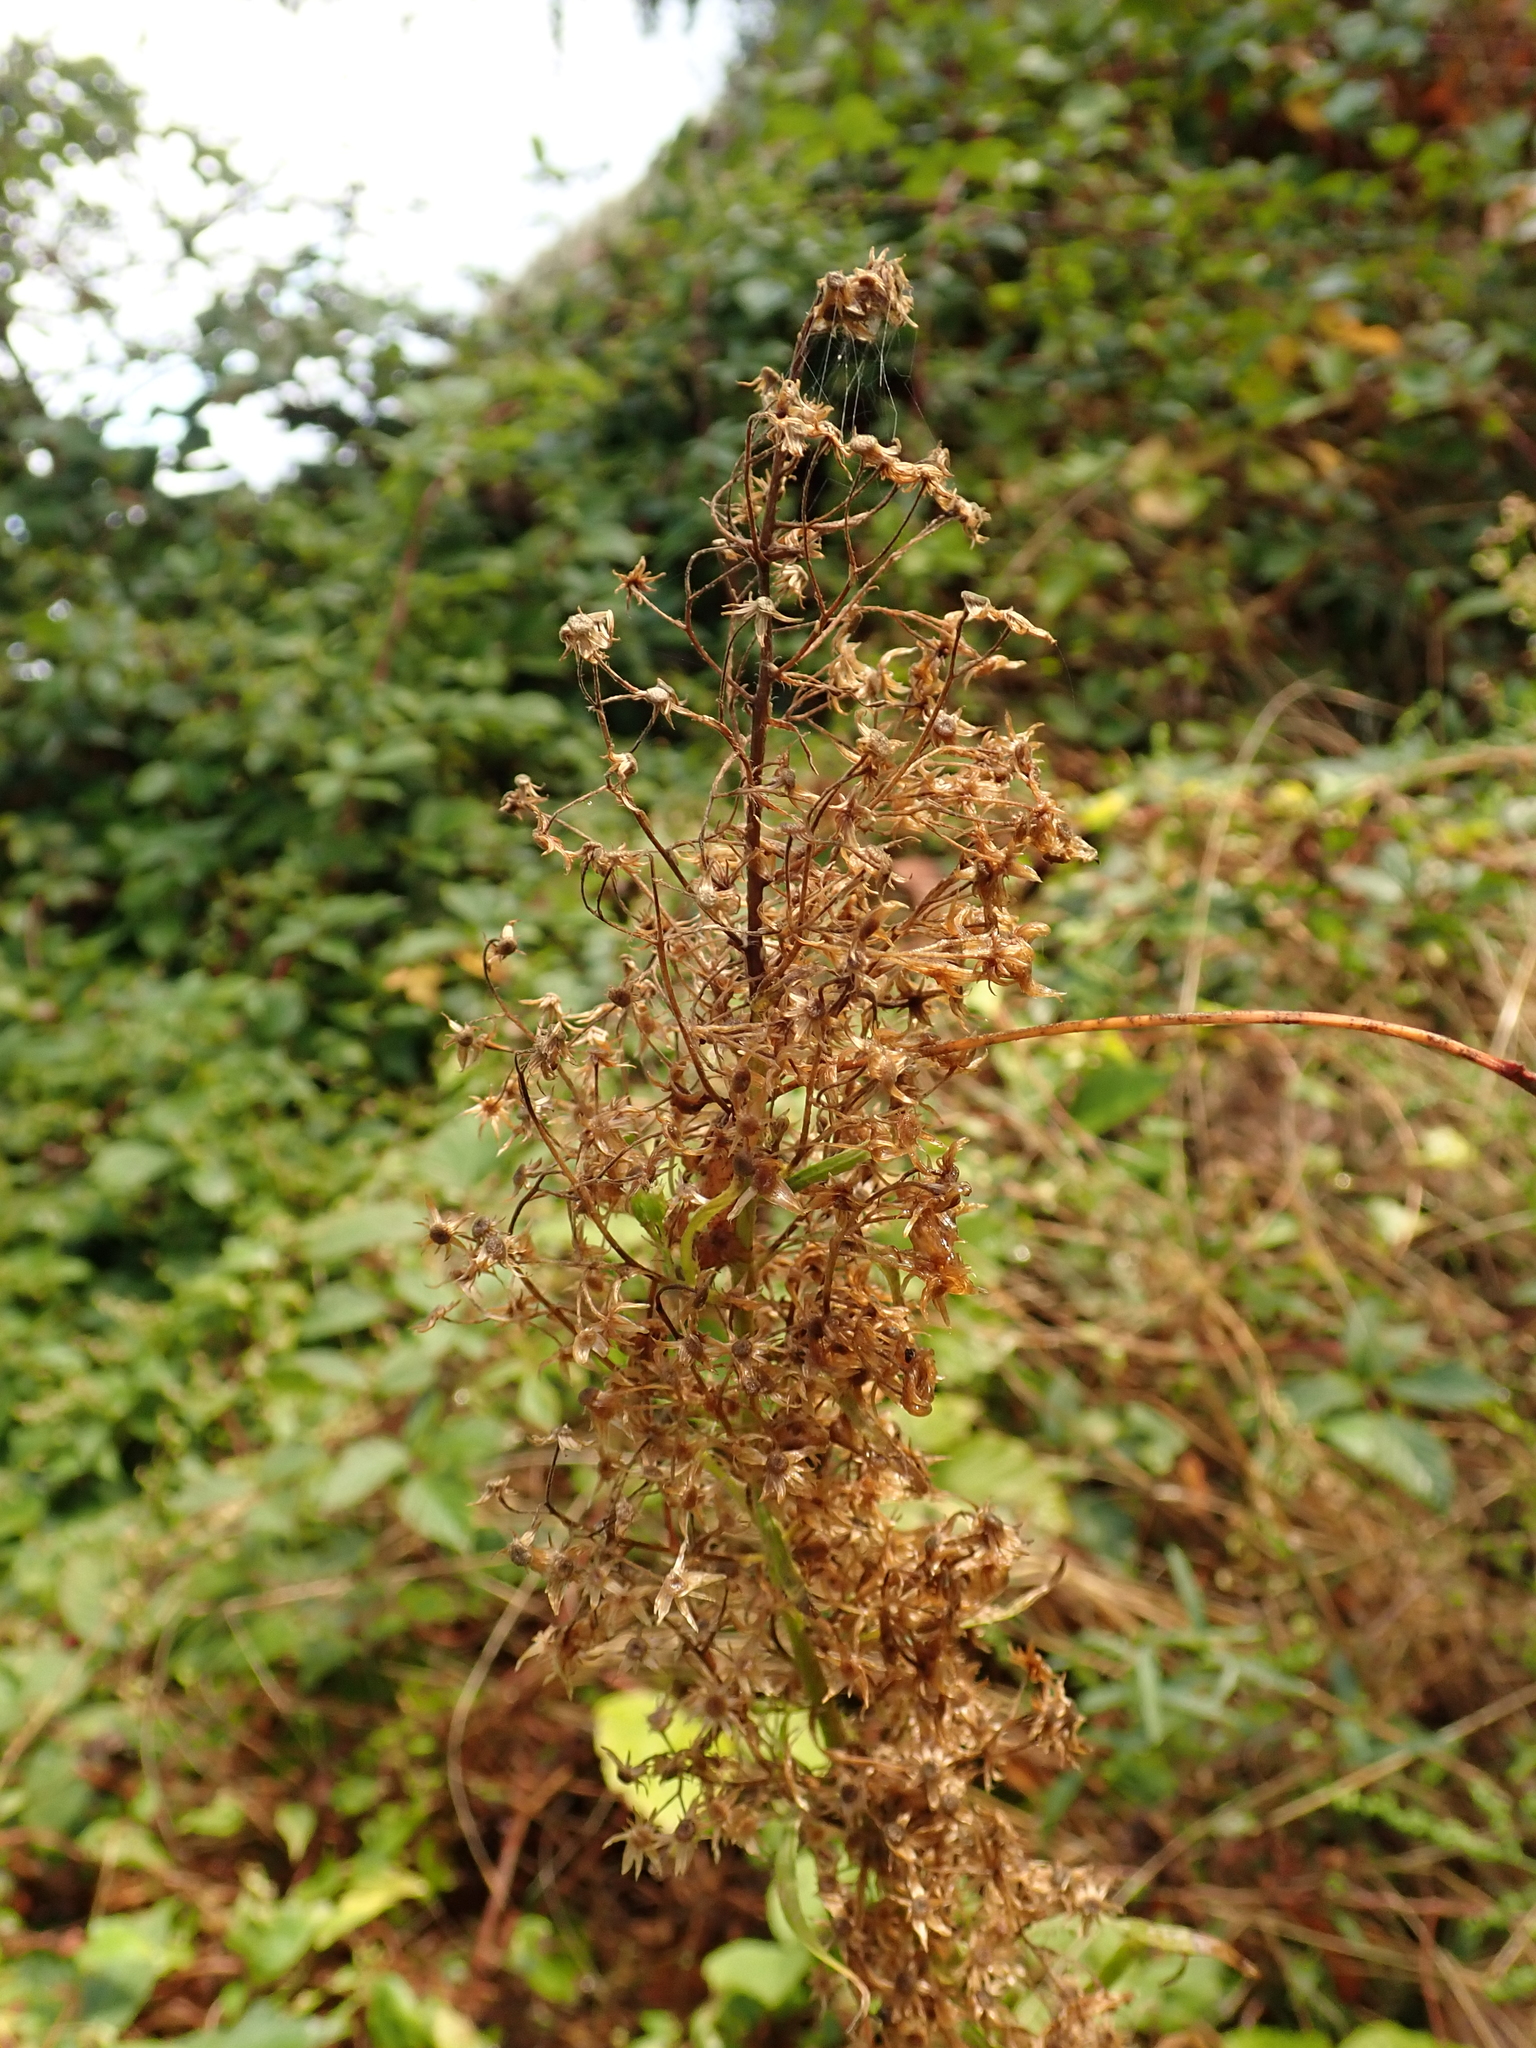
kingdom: Plantae
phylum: Tracheophyta
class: Magnoliopsida
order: Asterales
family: Asteraceae
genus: Erigeron
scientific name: Erigeron canadensis
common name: Canadian fleabane
